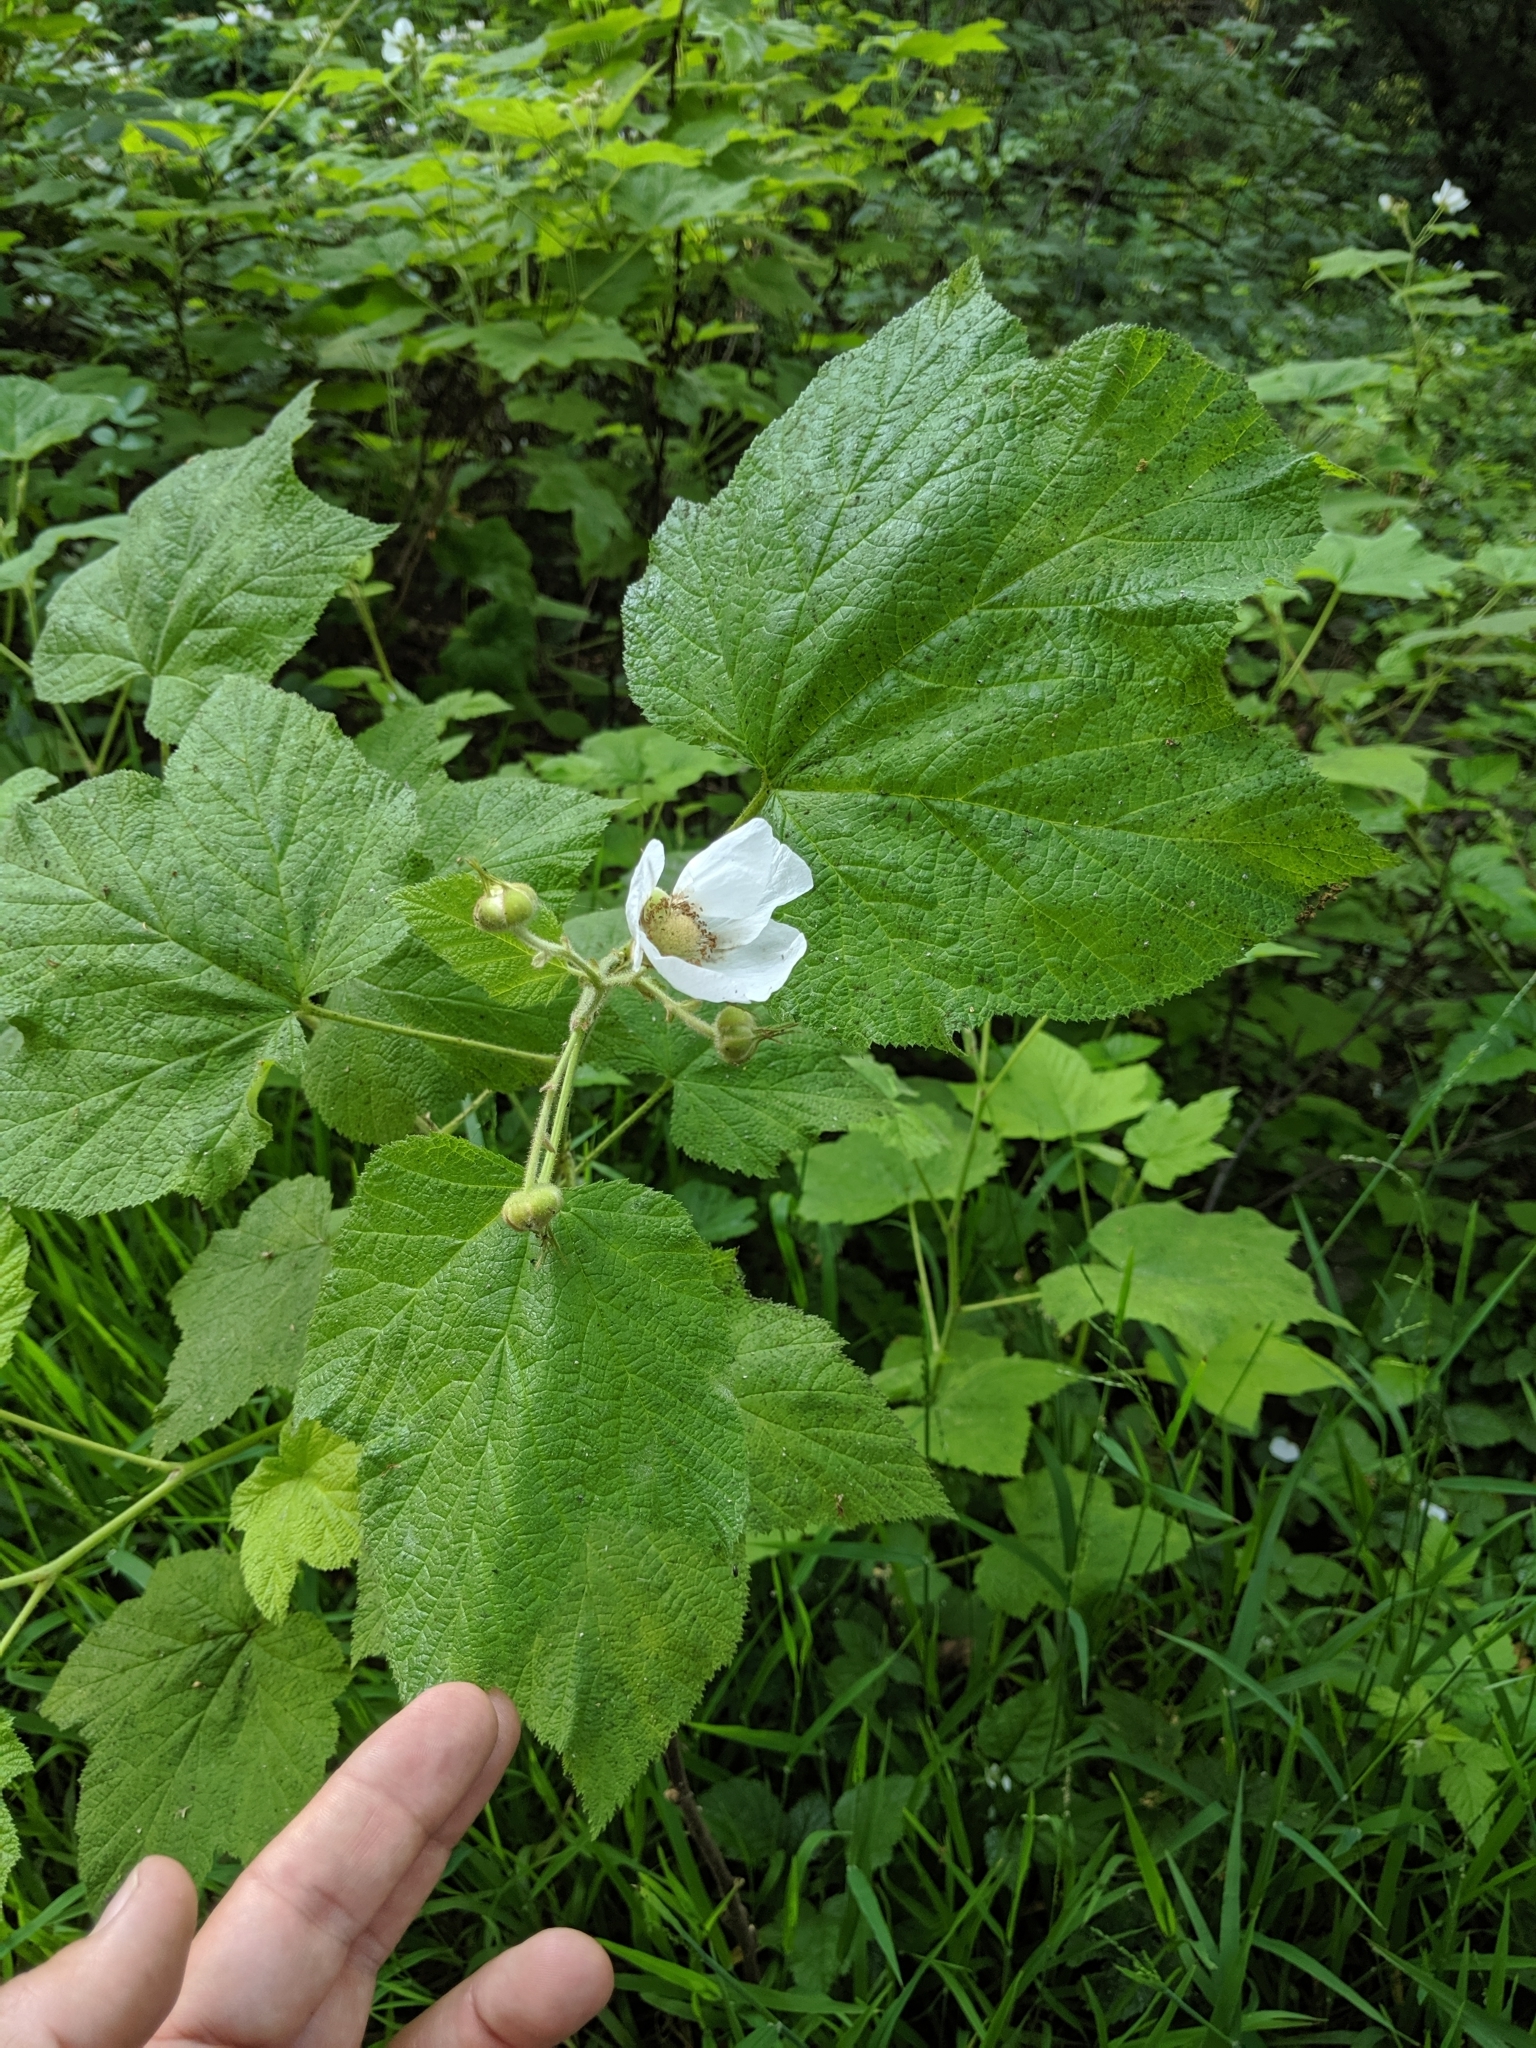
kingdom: Plantae
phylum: Tracheophyta
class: Magnoliopsida
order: Rosales
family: Rosaceae
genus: Rubus
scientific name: Rubus parviflorus
